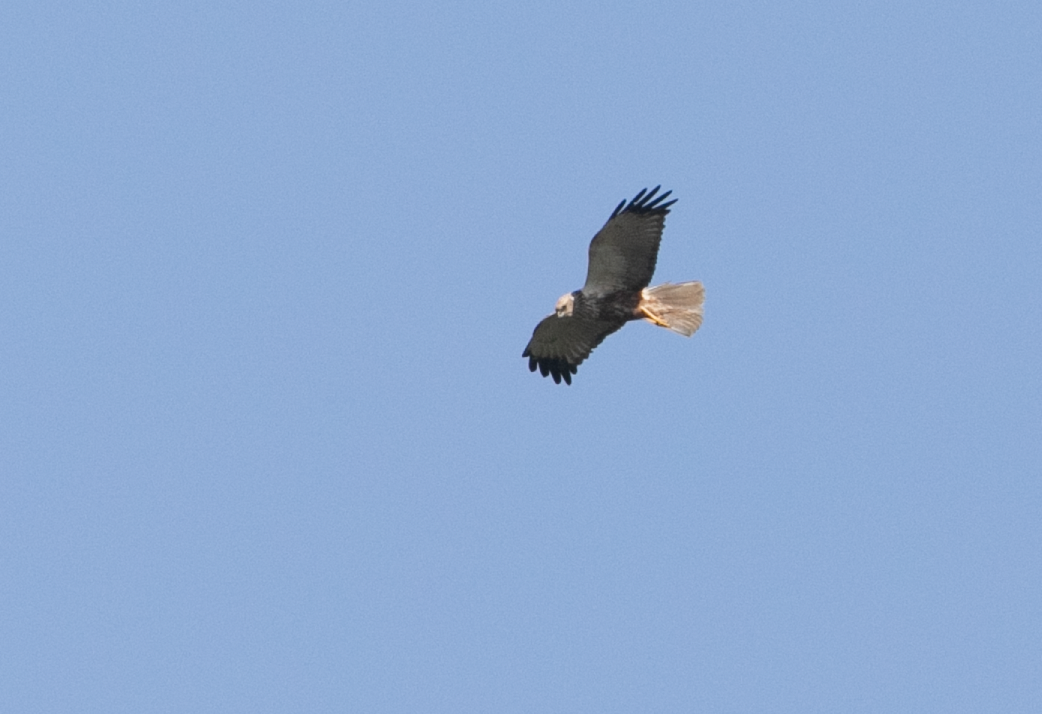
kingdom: Animalia
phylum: Chordata
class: Aves
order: Accipitriformes
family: Accipitridae
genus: Circus
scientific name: Circus aeruginosus
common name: Western marsh harrier
